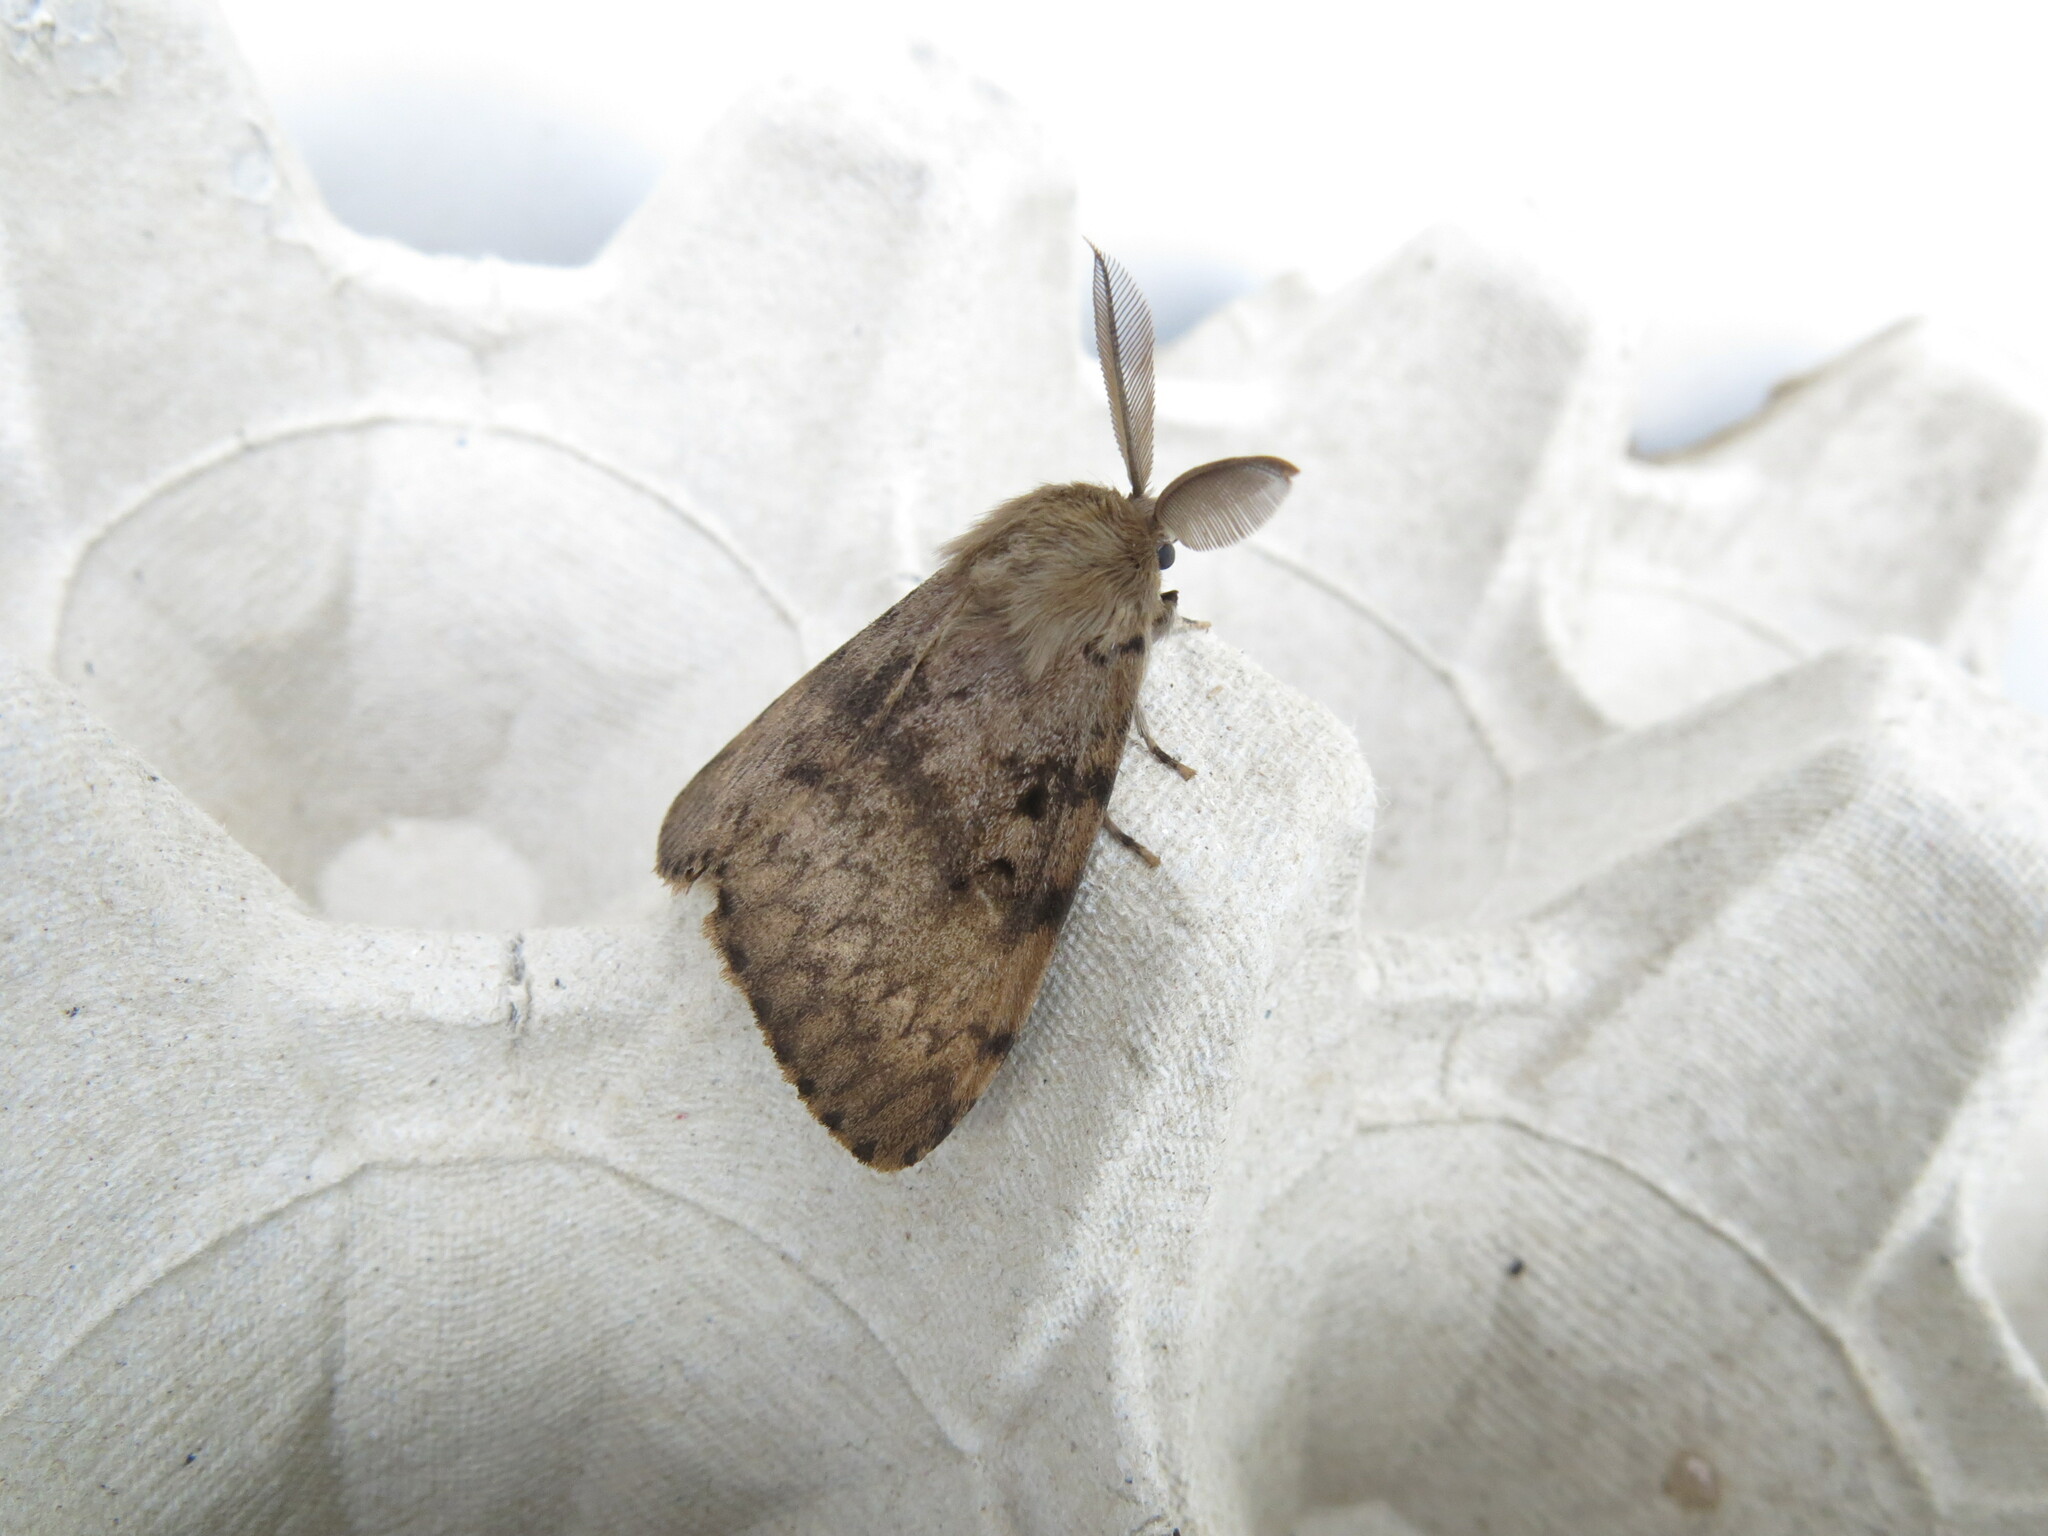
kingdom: Animalia
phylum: Arthropoda
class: Insecta
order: Lepidoptera
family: Erebidae
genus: Lymantria
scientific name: Lymantria dispar
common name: Gypsy moth
